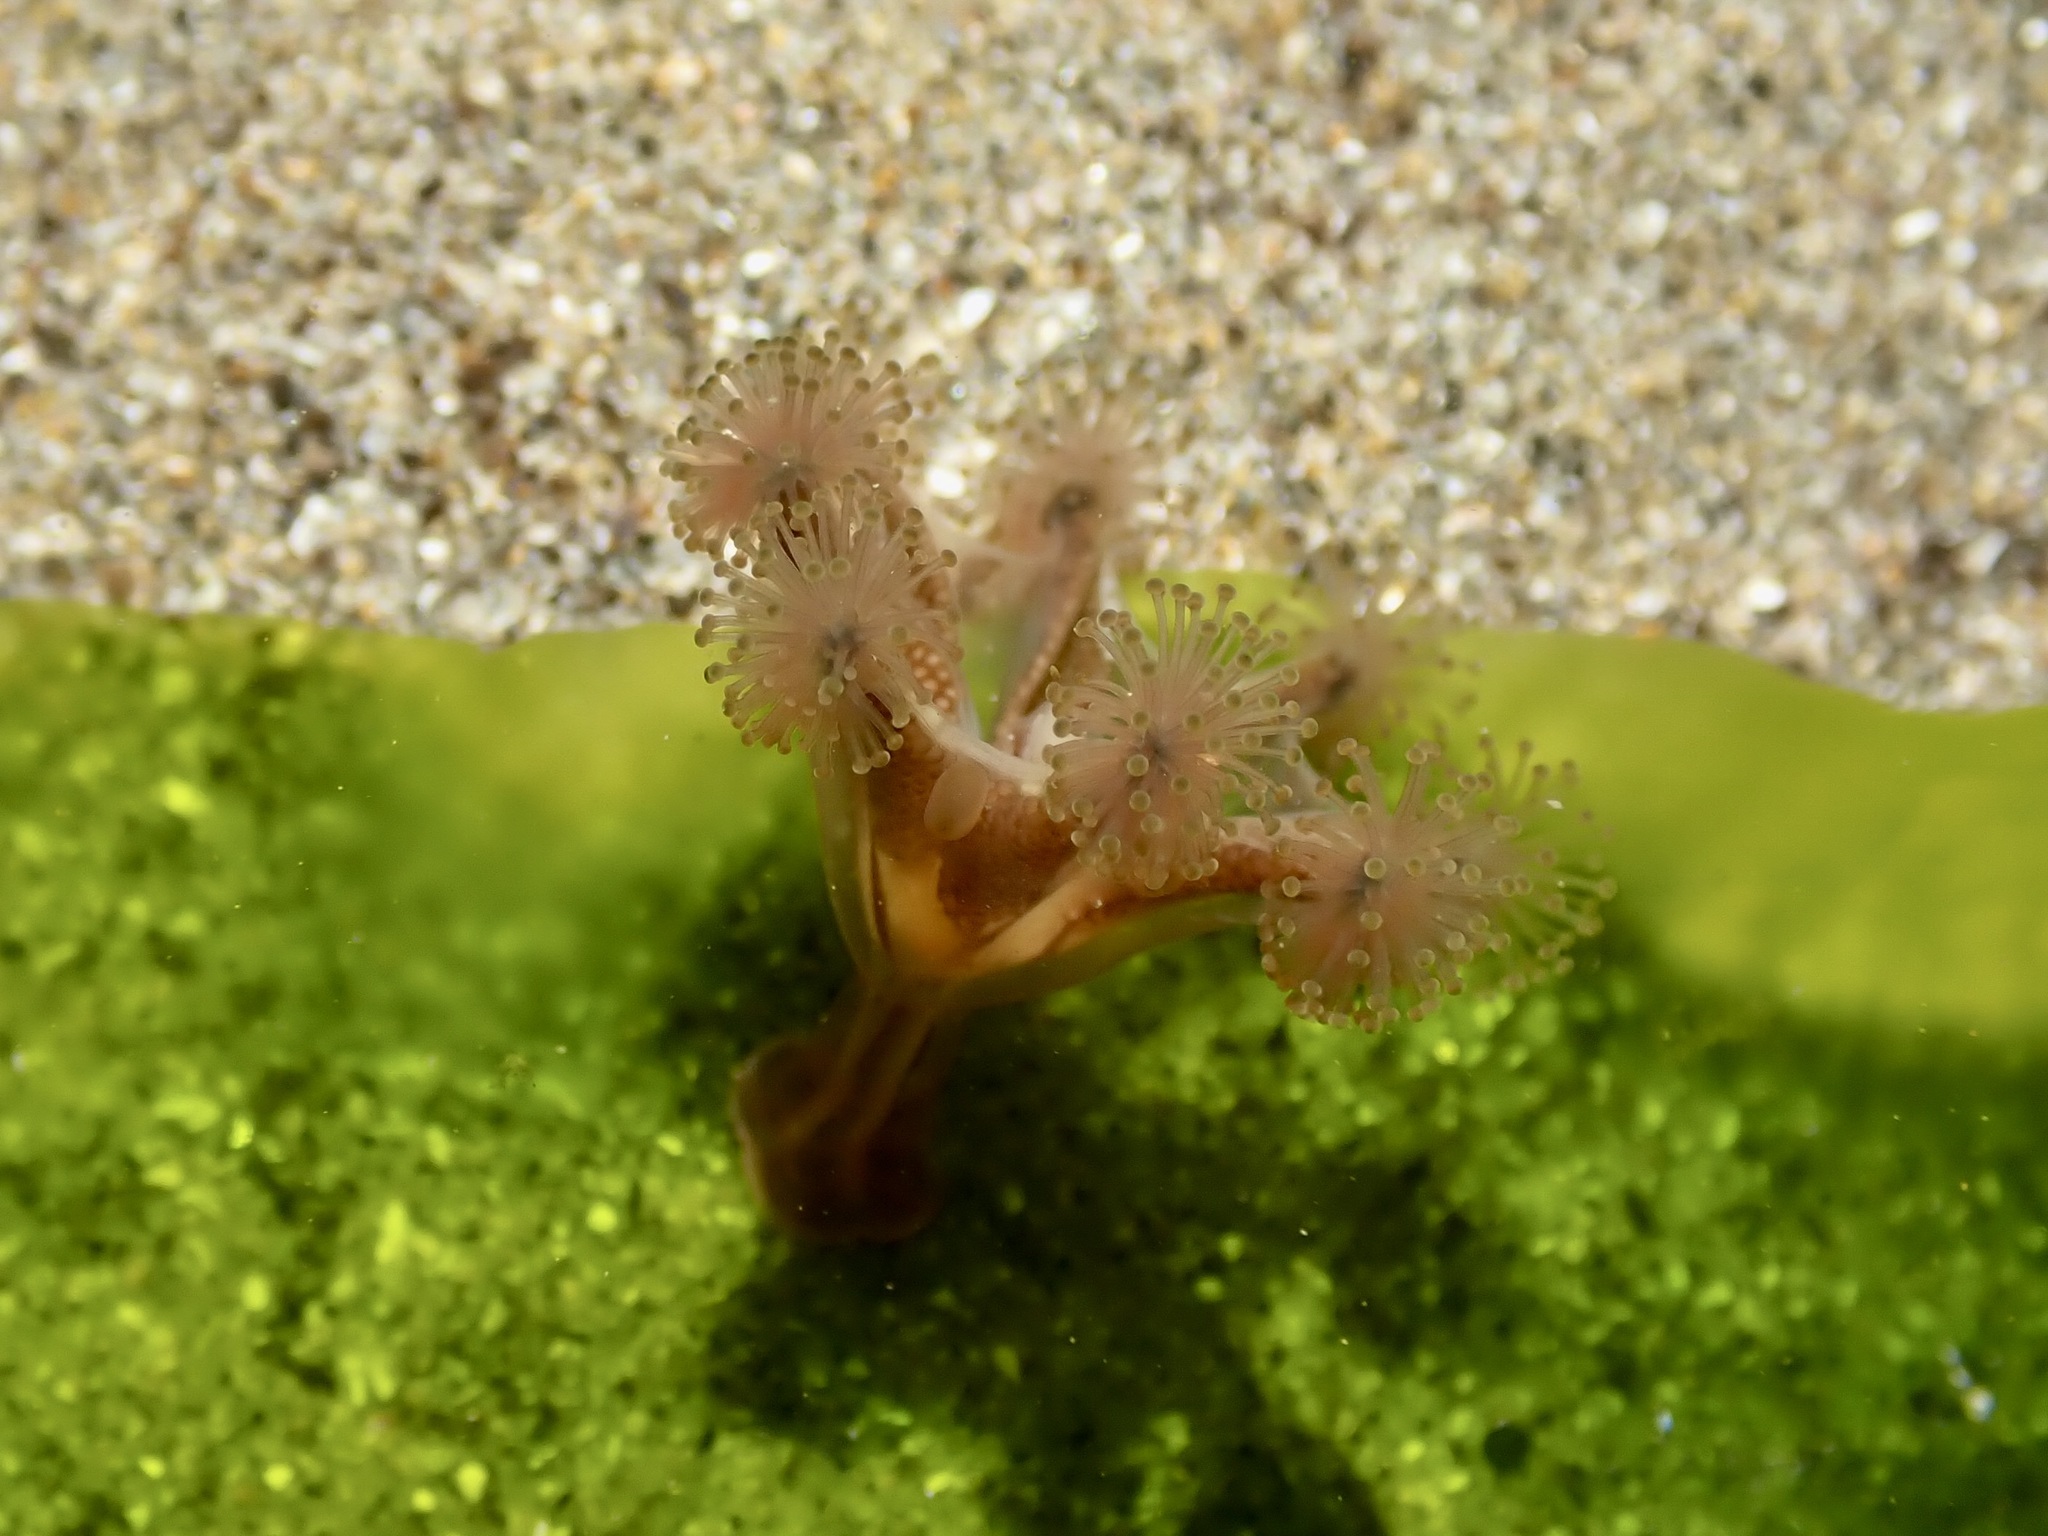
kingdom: Animalia
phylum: Cnidaria
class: Staurozoa
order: Stauromedusae
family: Haliclystidae
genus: Haliclystus
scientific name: Haliclystus sanjuanensis
